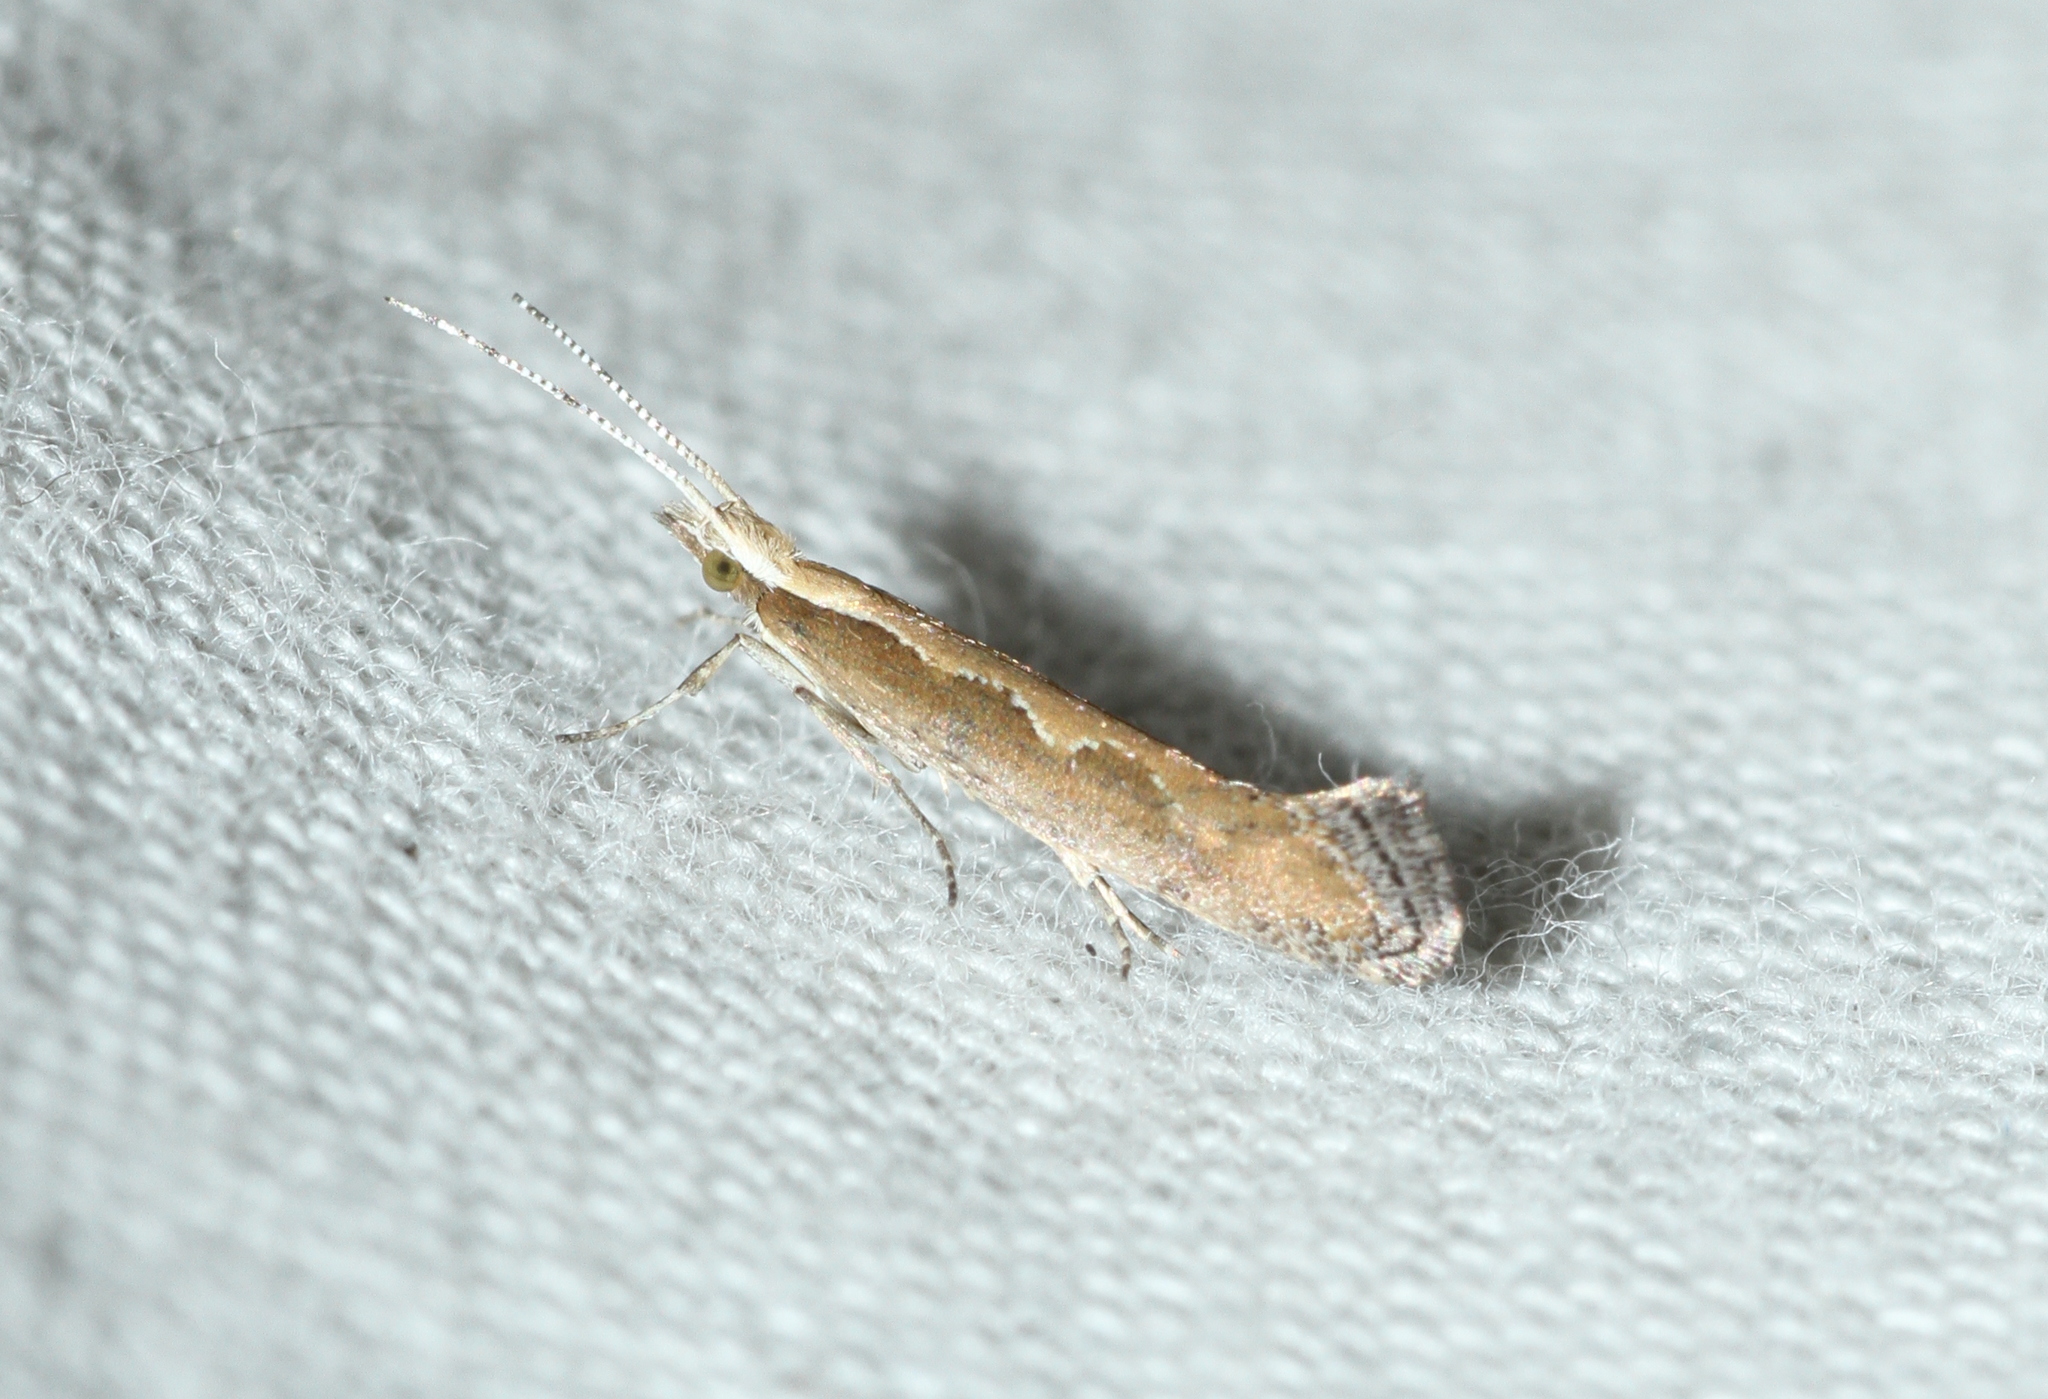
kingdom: Animalia
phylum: Arthropoda
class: Insecta
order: Lepidoptera
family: Plutellidae
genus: Plutella
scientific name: Plutella xylostella
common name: Diamond-back moth
